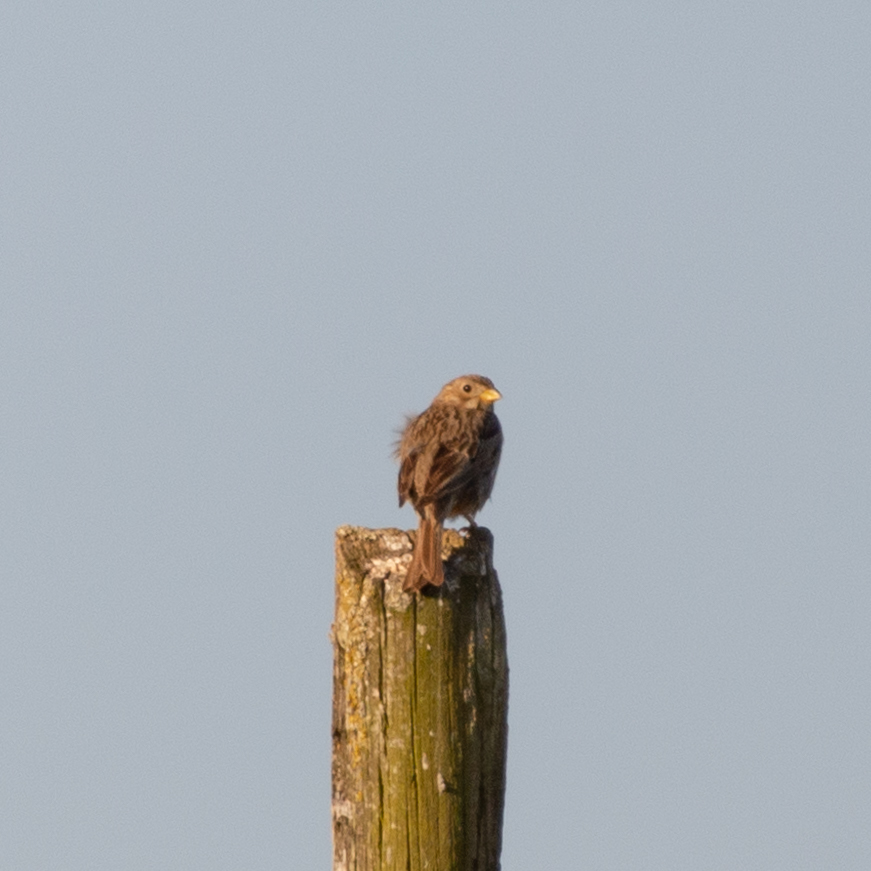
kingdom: Animalia
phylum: Chordata
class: Aves
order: Passeriformes
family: Emberizidae
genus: Emberiza
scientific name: Emberiza calandra
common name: Corn bunting
